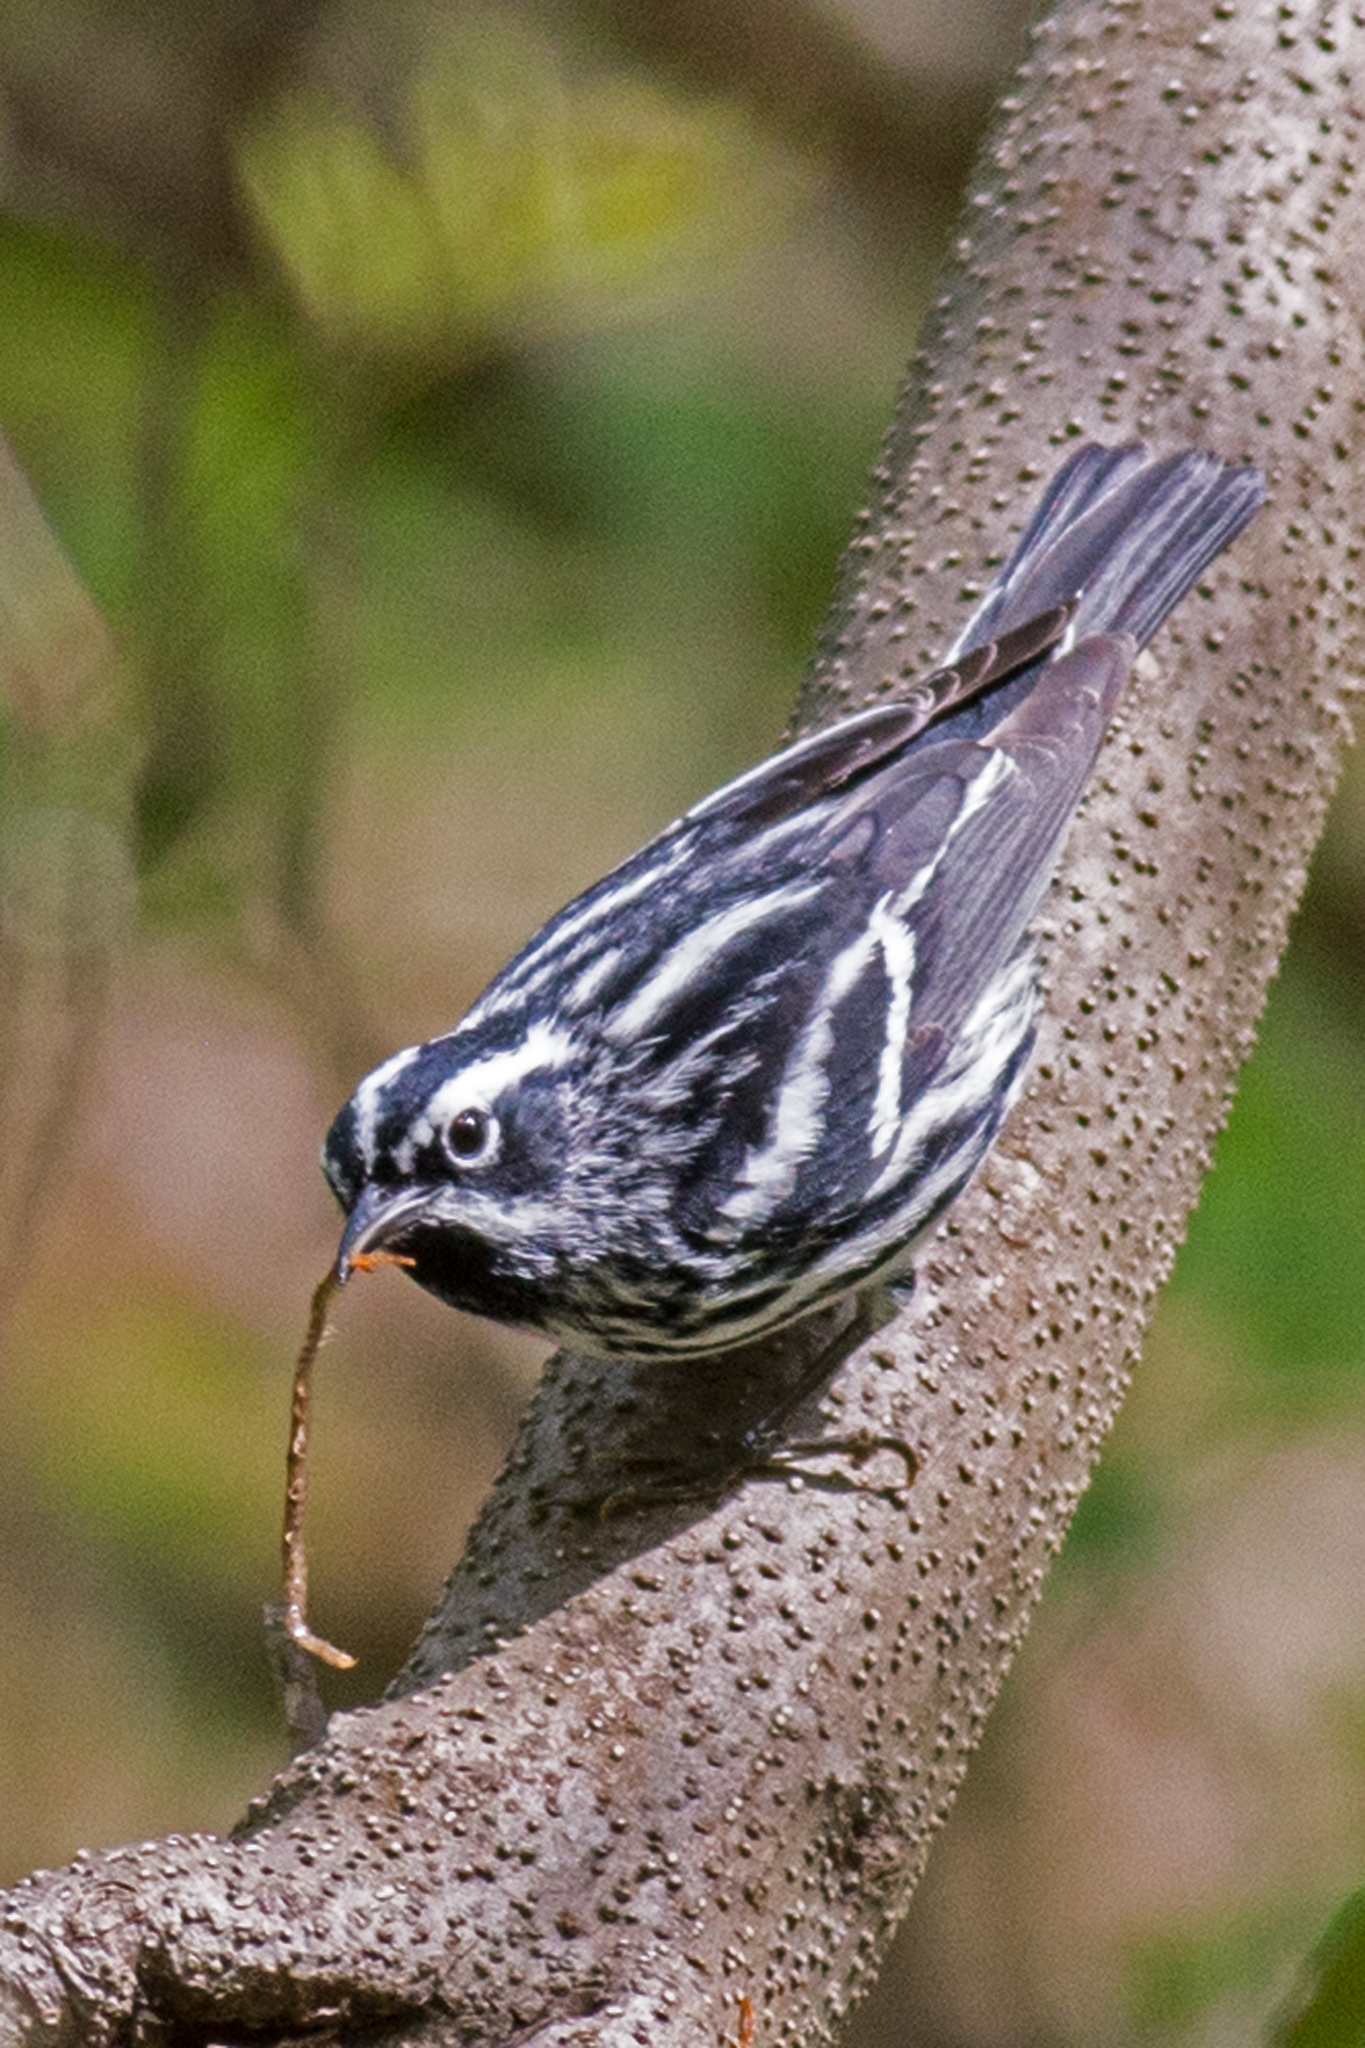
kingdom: Animalia
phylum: Chordata
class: Aves
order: Passeriformes
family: Parulidae
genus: Mniotilta
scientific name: Mniotilta varia
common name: Black-and-white warbler
